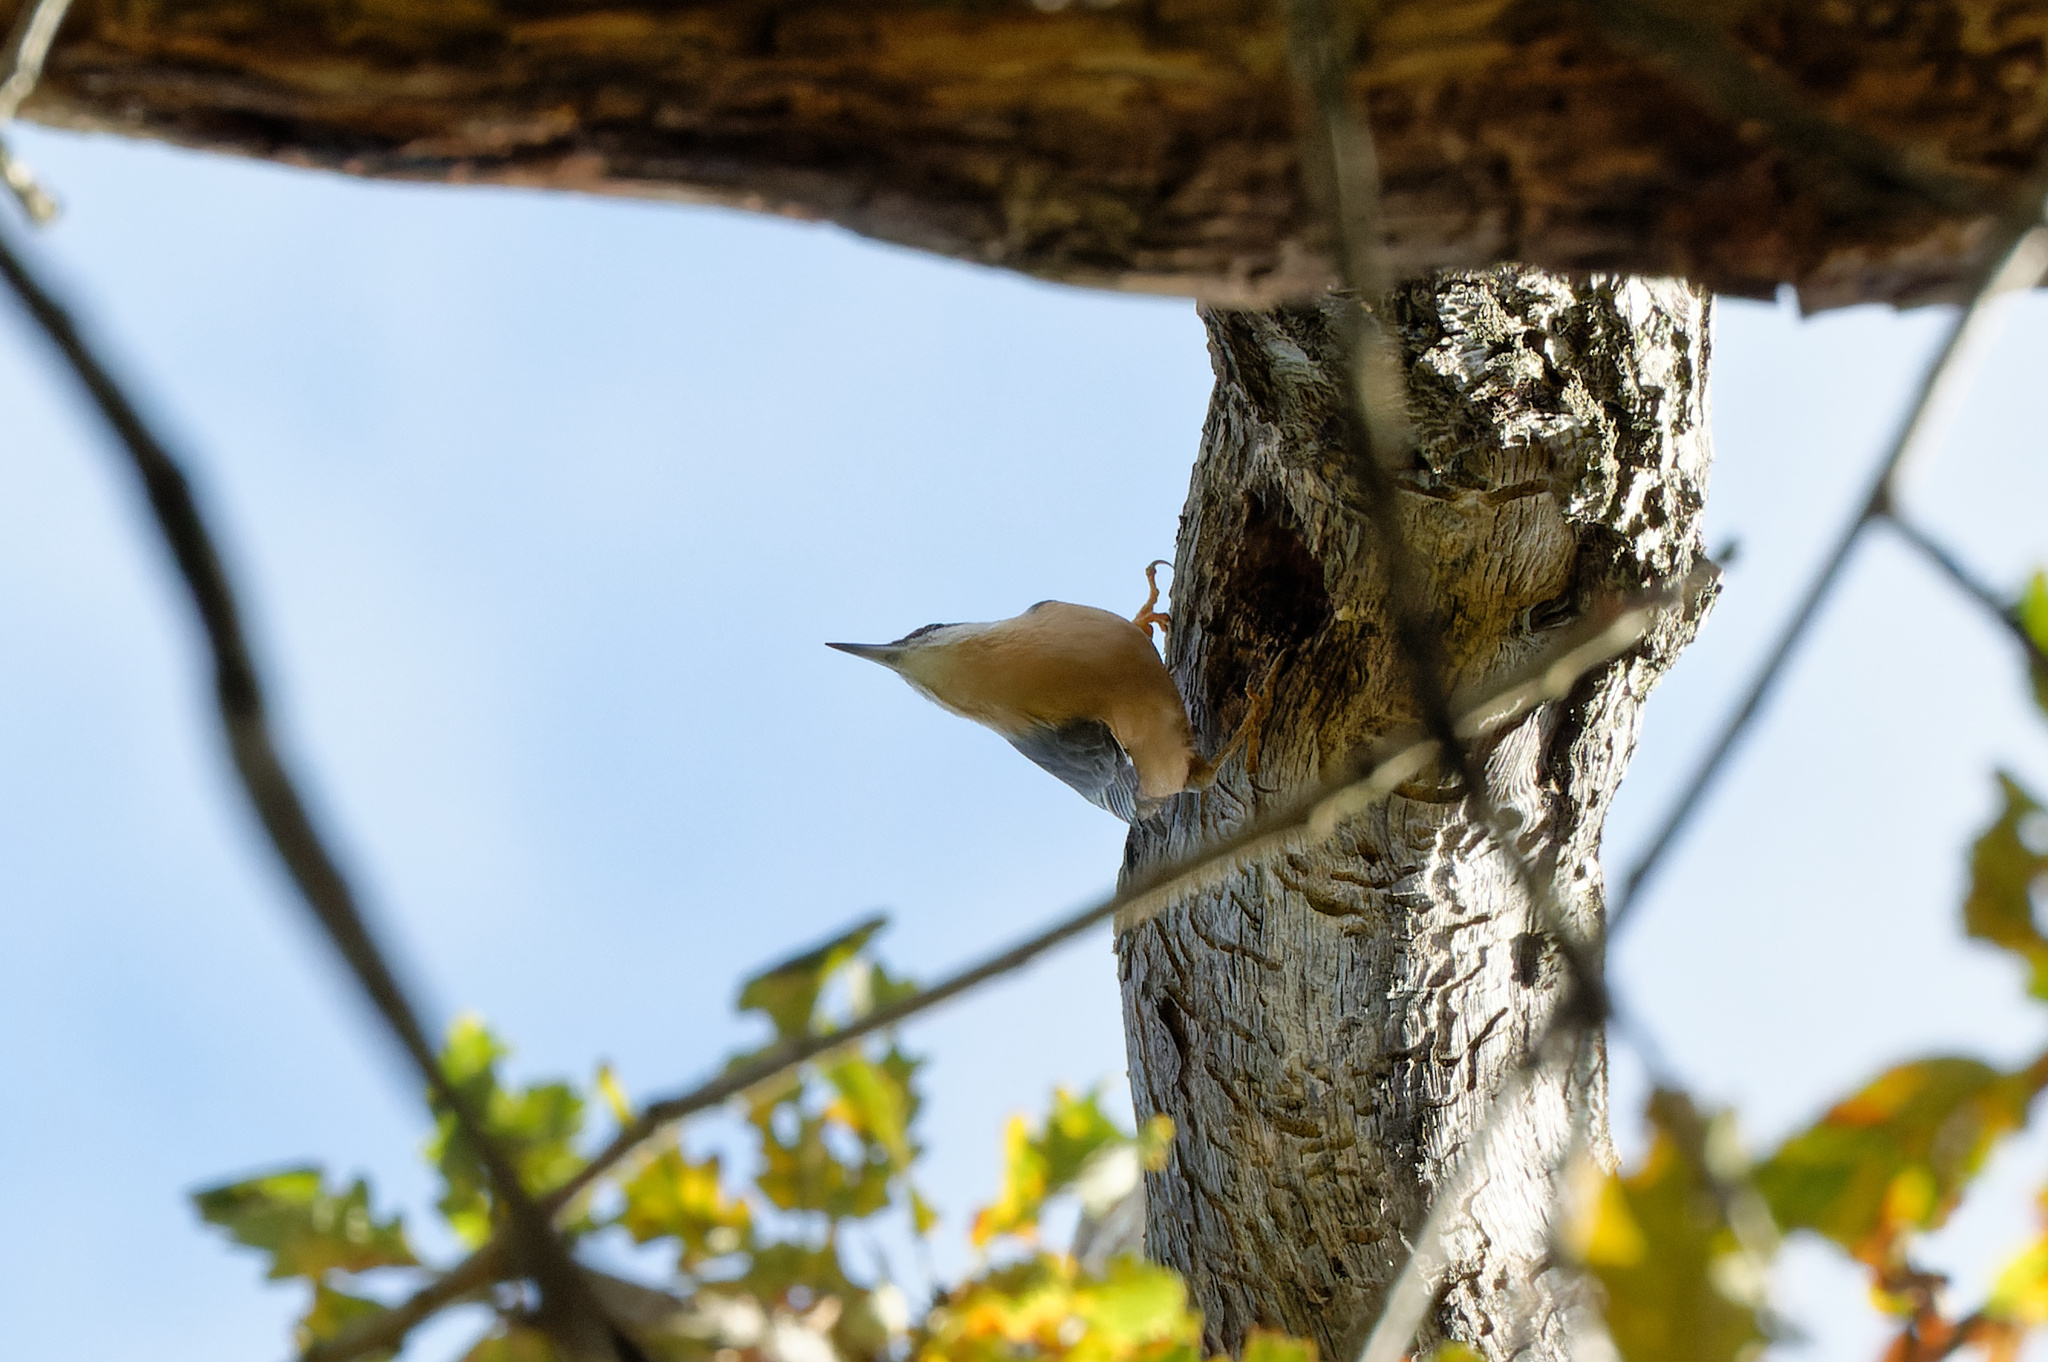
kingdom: Animalia
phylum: Chordata
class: Aves
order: Passeriformes
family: Sittidae
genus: Sitta
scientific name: Sitta europaea
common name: Eurasian nuthatch
